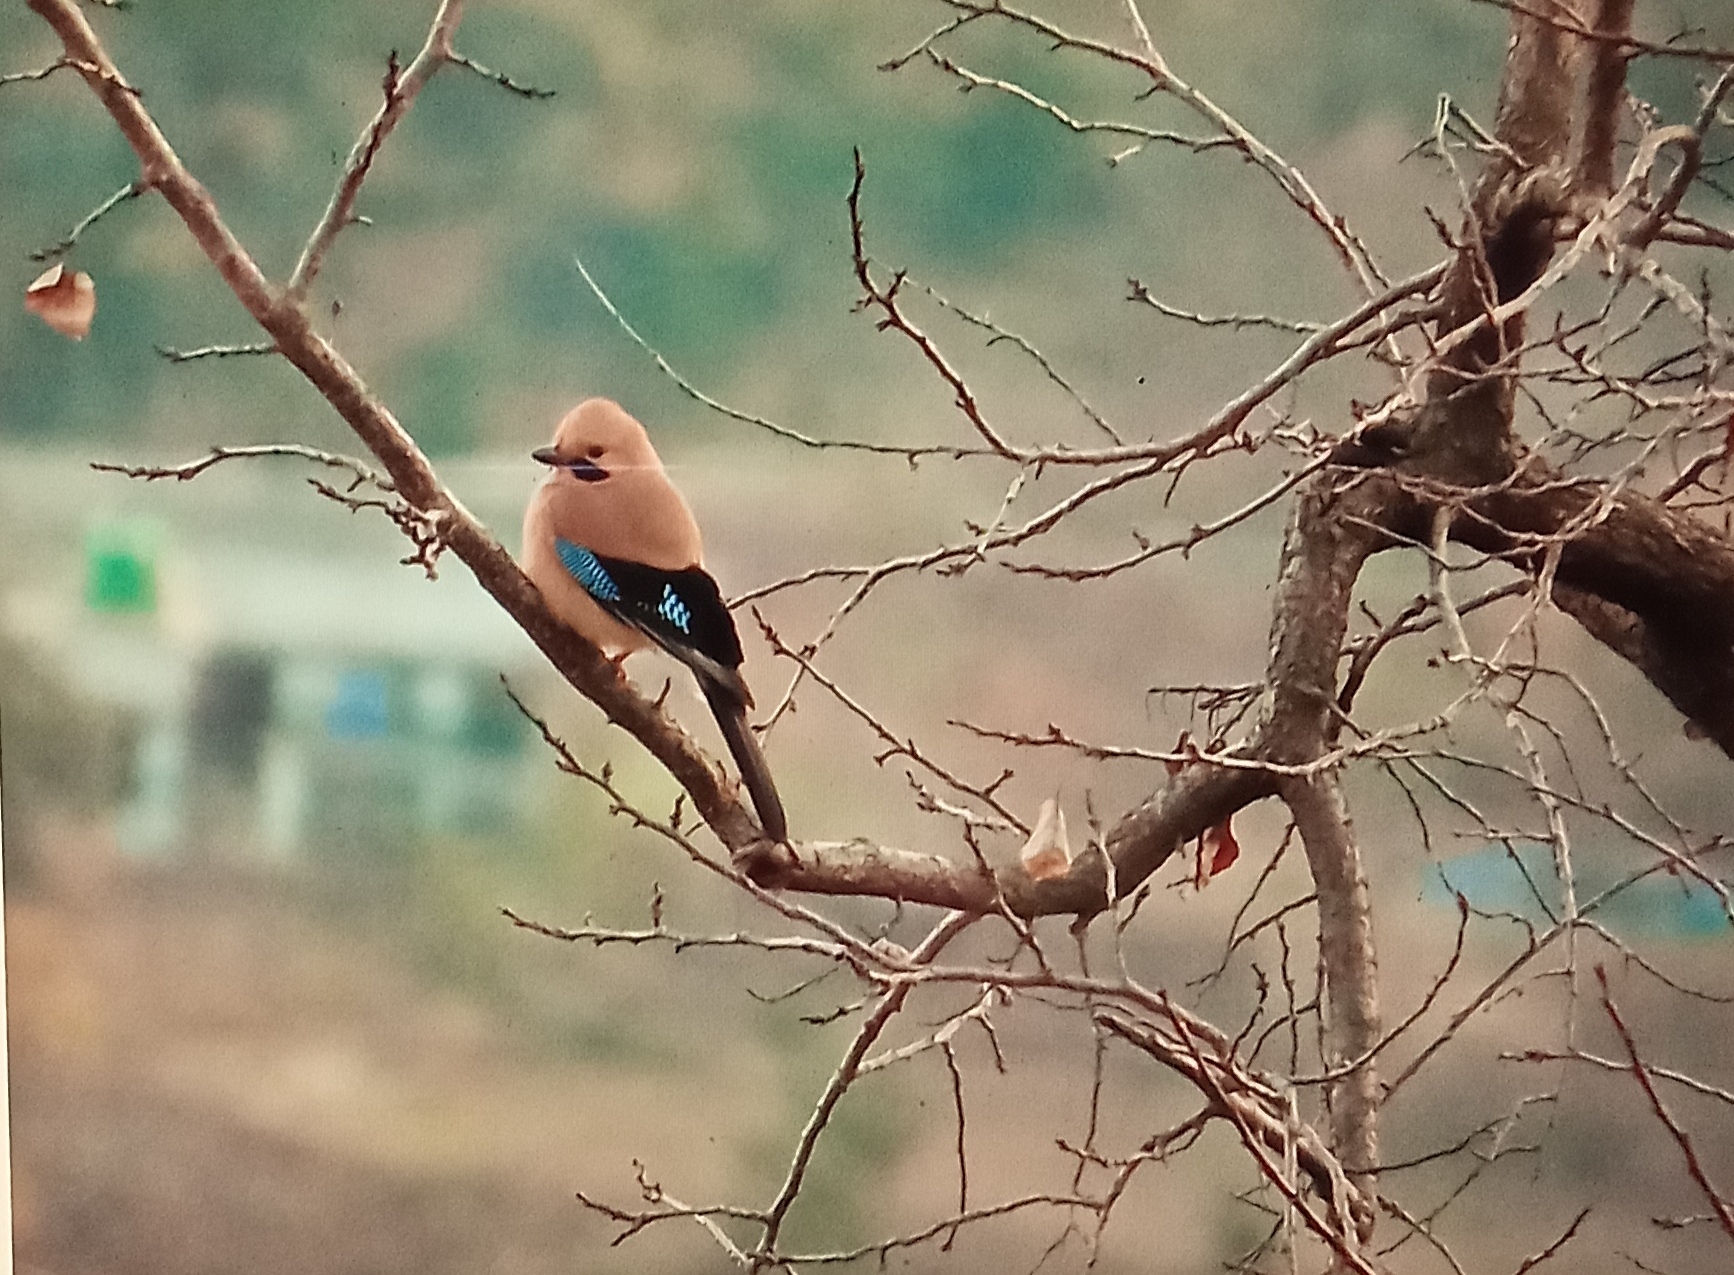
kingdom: Animalia
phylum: Chordata
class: Aves
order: Passeriformes
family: Corvidae
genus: Garrulus
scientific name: Garrulus glandarius
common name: Eurasian jay
